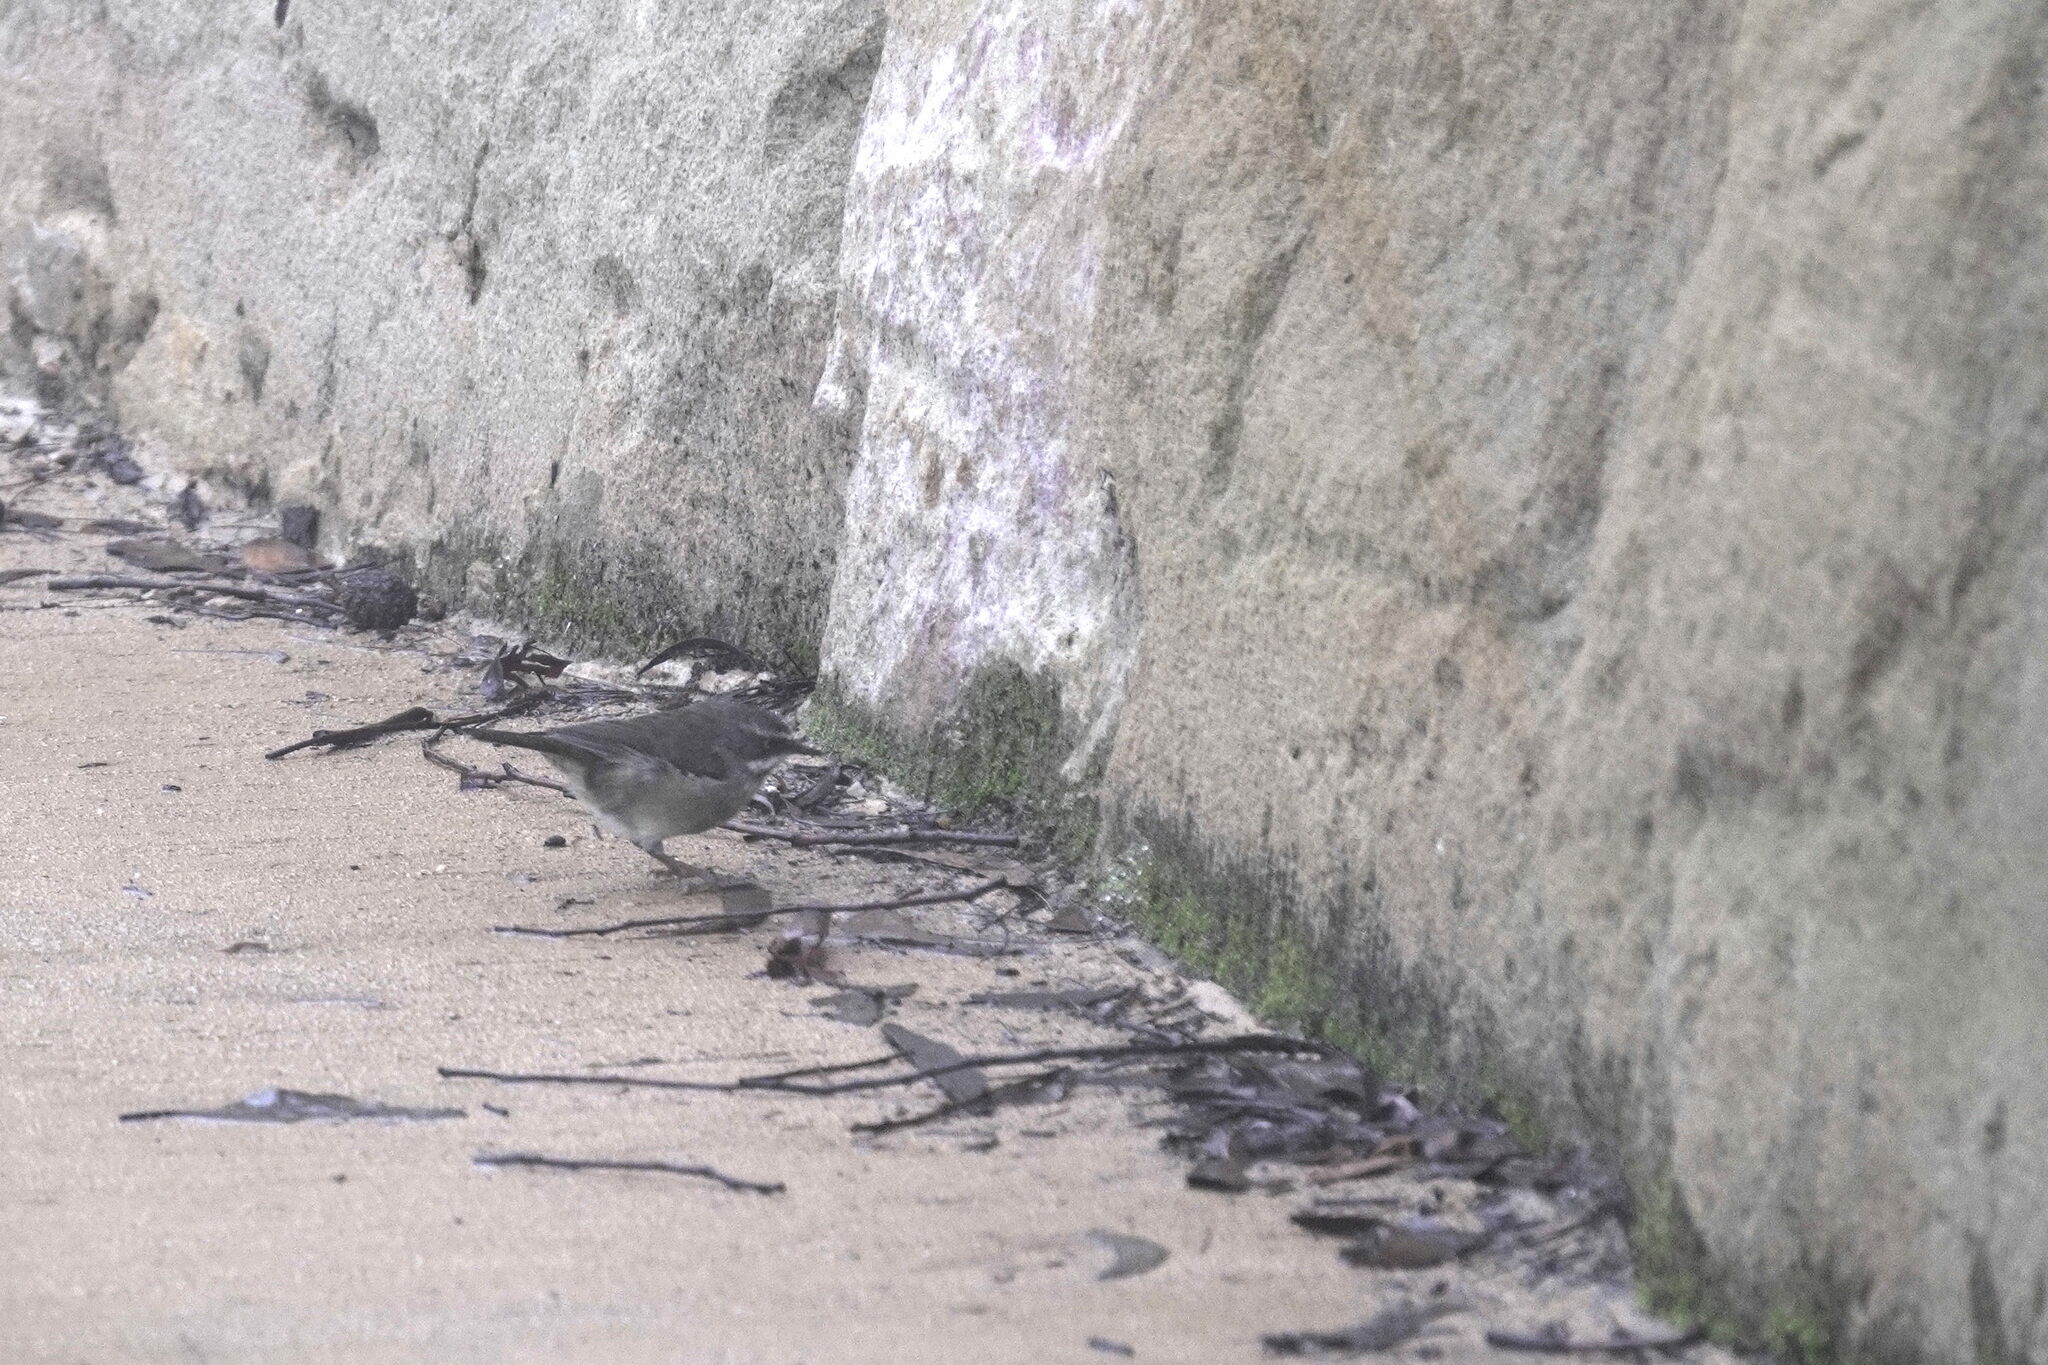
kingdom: Animalia
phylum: Chordata
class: Aves
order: Passeriformes
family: Acanthizidae
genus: Sericornis
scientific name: Sericornis frontalis
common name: White-browed scrubwren
